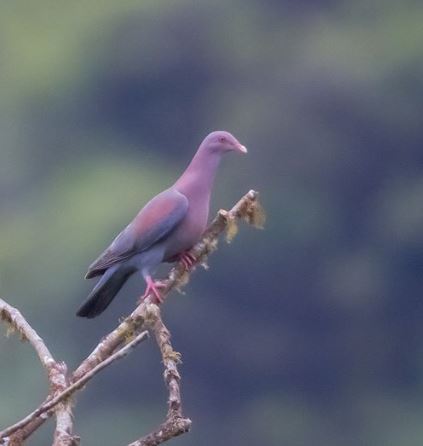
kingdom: Animalia
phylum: Chordata
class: Aves
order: Columbiformes
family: Columbidae
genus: Patagioenas
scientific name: Patagioenas flavirostris
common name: Red-billed pigeon
